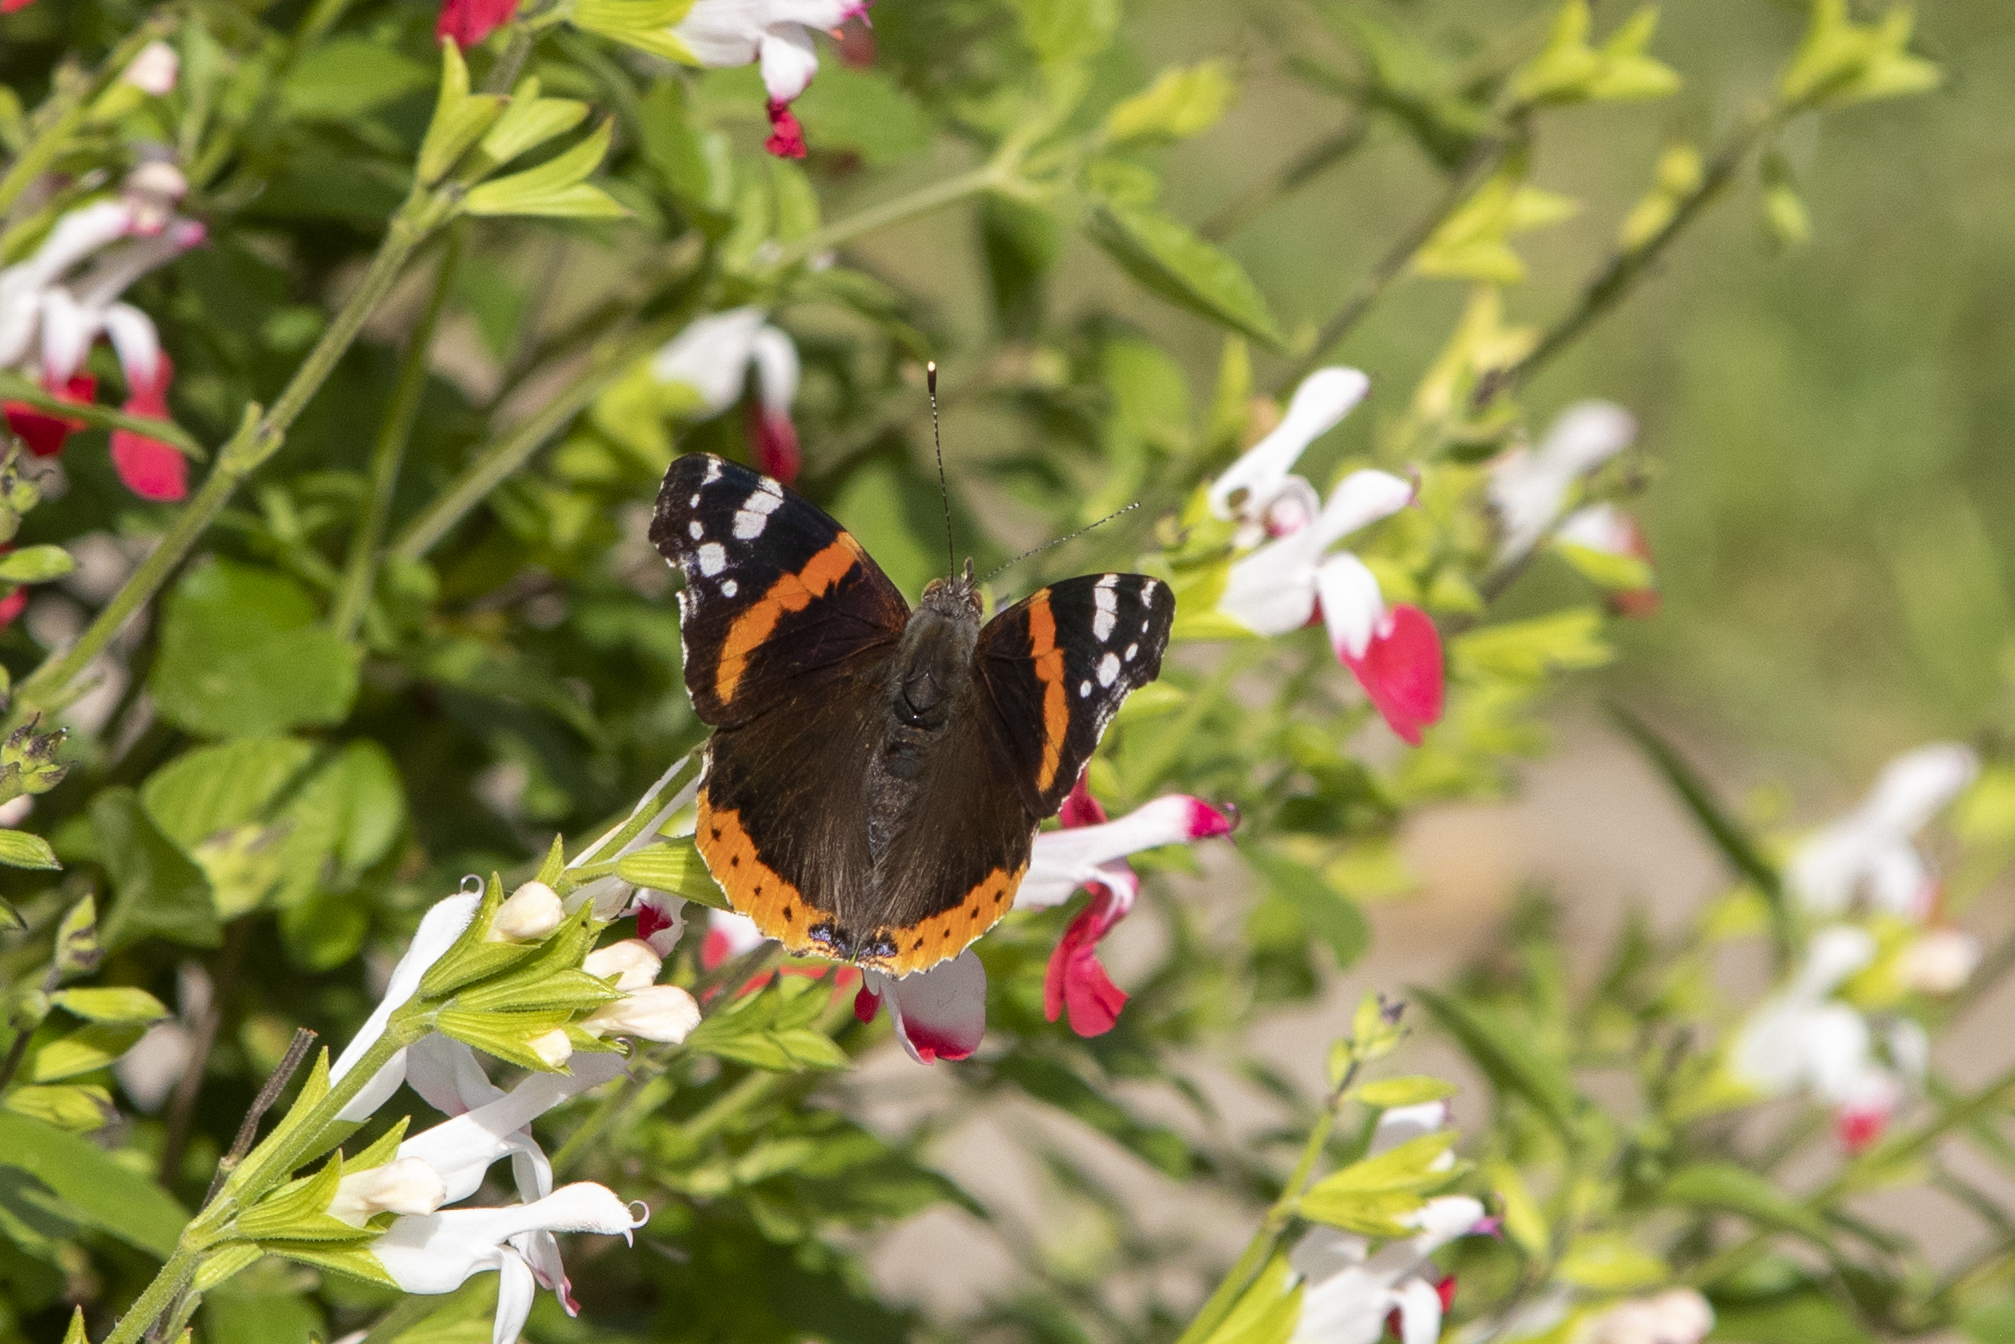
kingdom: Animalia
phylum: Arthropoda
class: Insecta
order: Lepidoptera
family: Nymphalidae
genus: Vanessa
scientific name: Vanessa atalanta
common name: Red admiral
